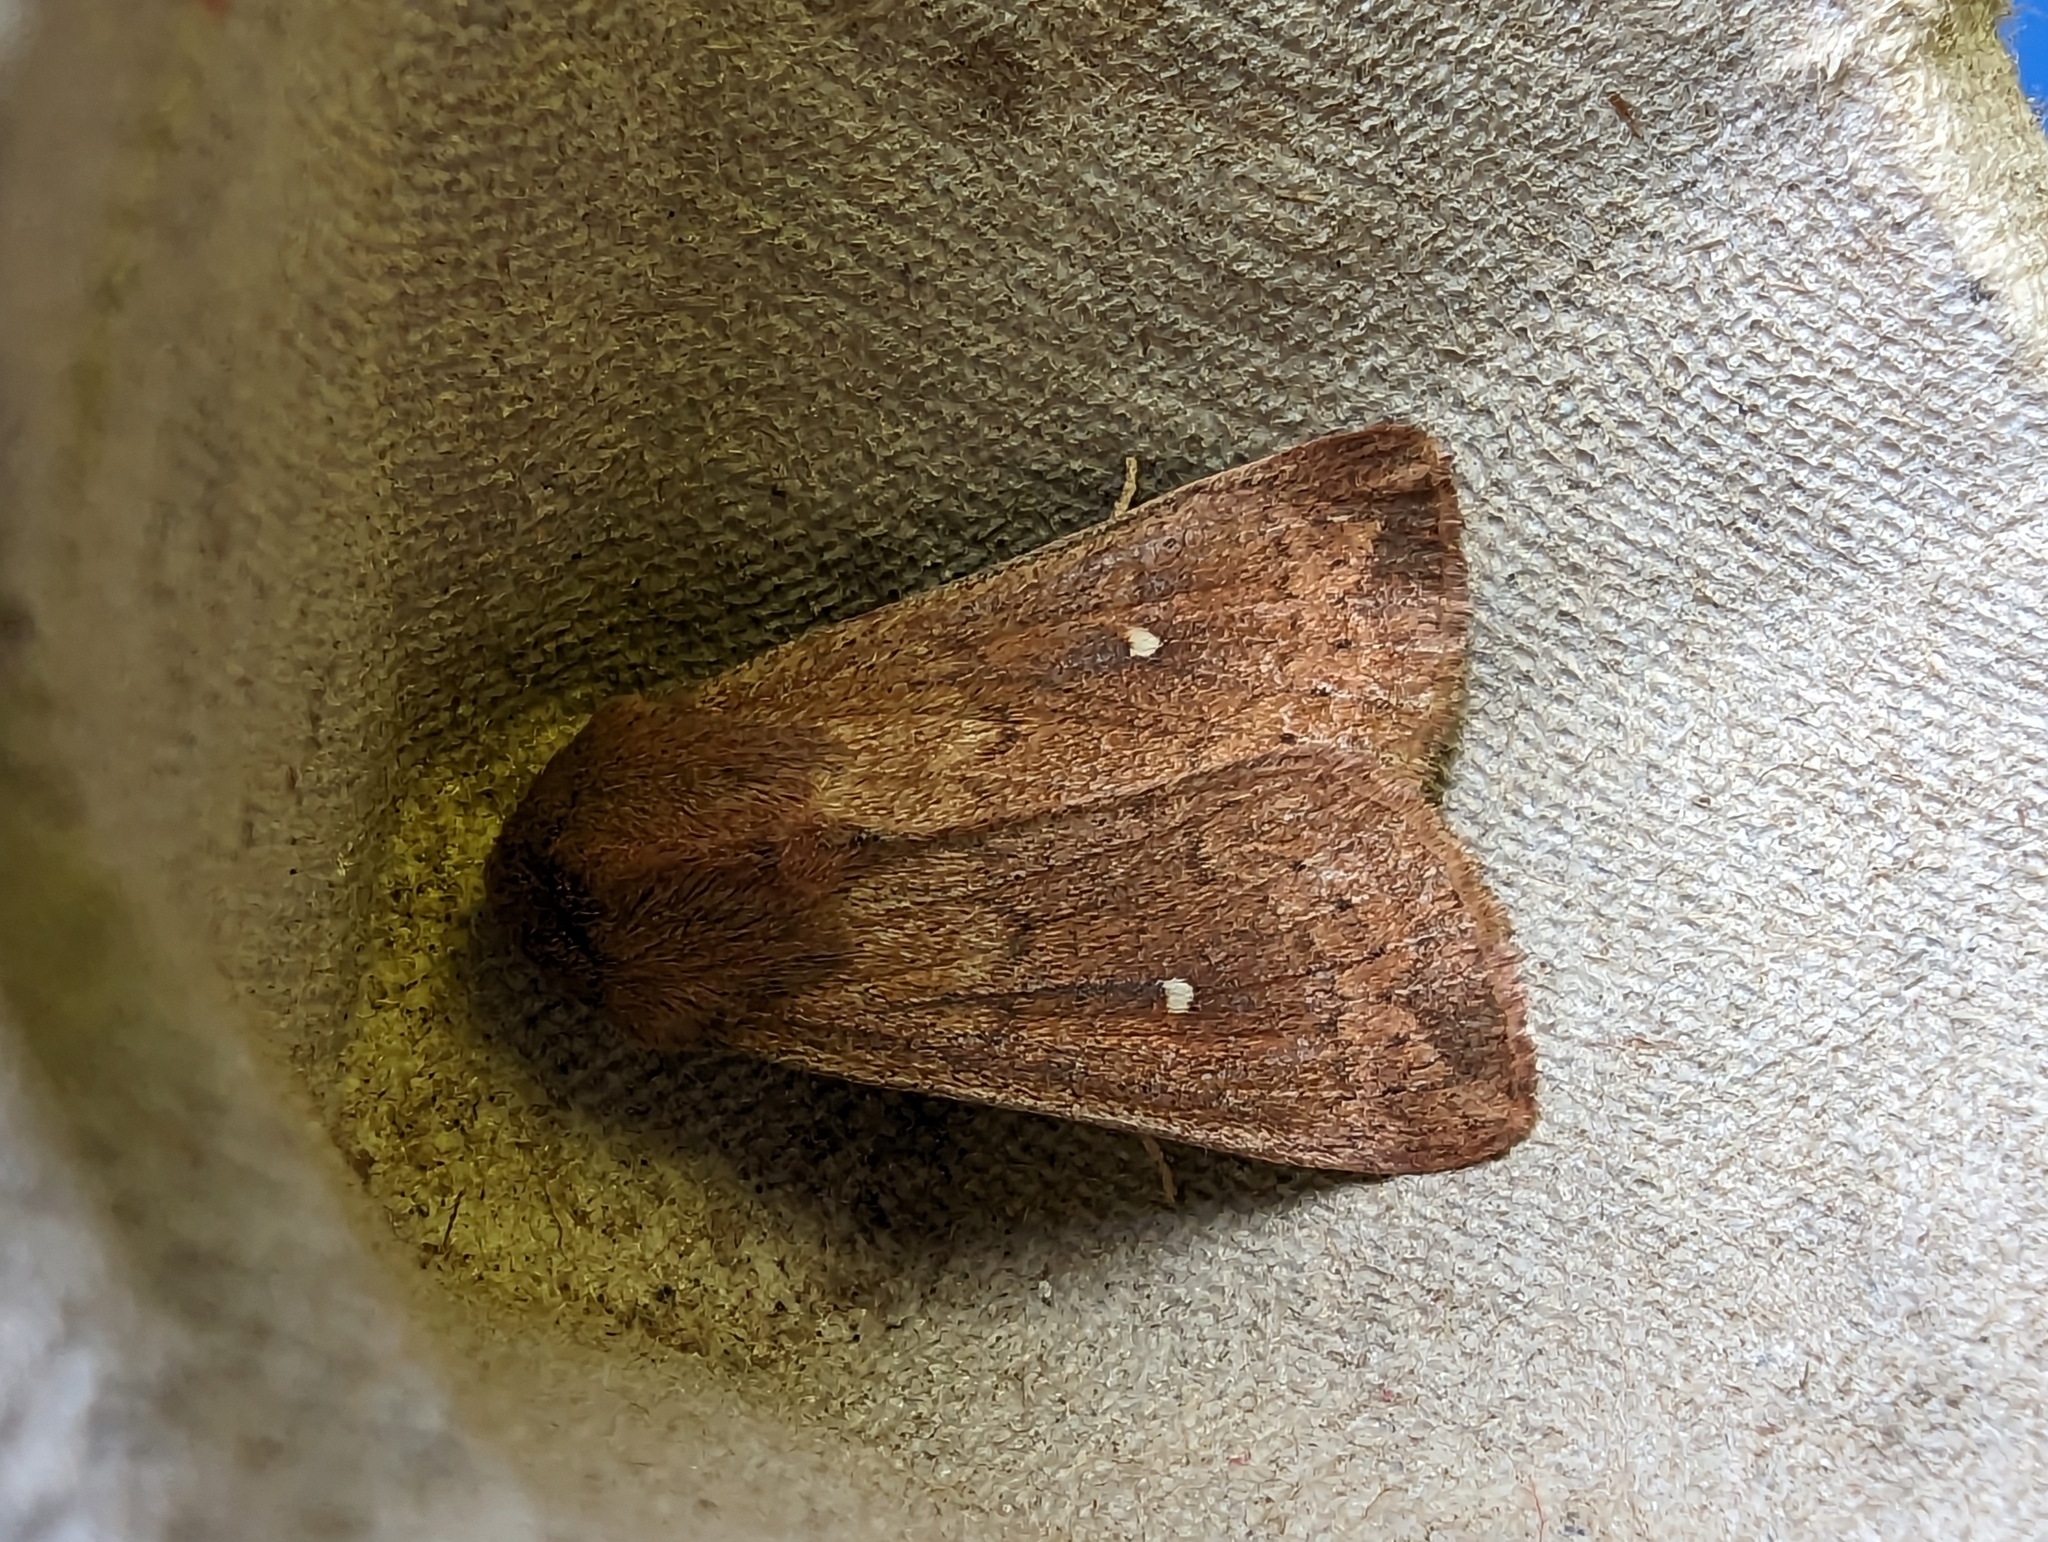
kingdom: Animalia
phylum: Arthropoda
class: Insecta
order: Lepidoptera
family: Noctuidae
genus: Mythimna
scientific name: Mythimna albipuncta
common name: White-point
